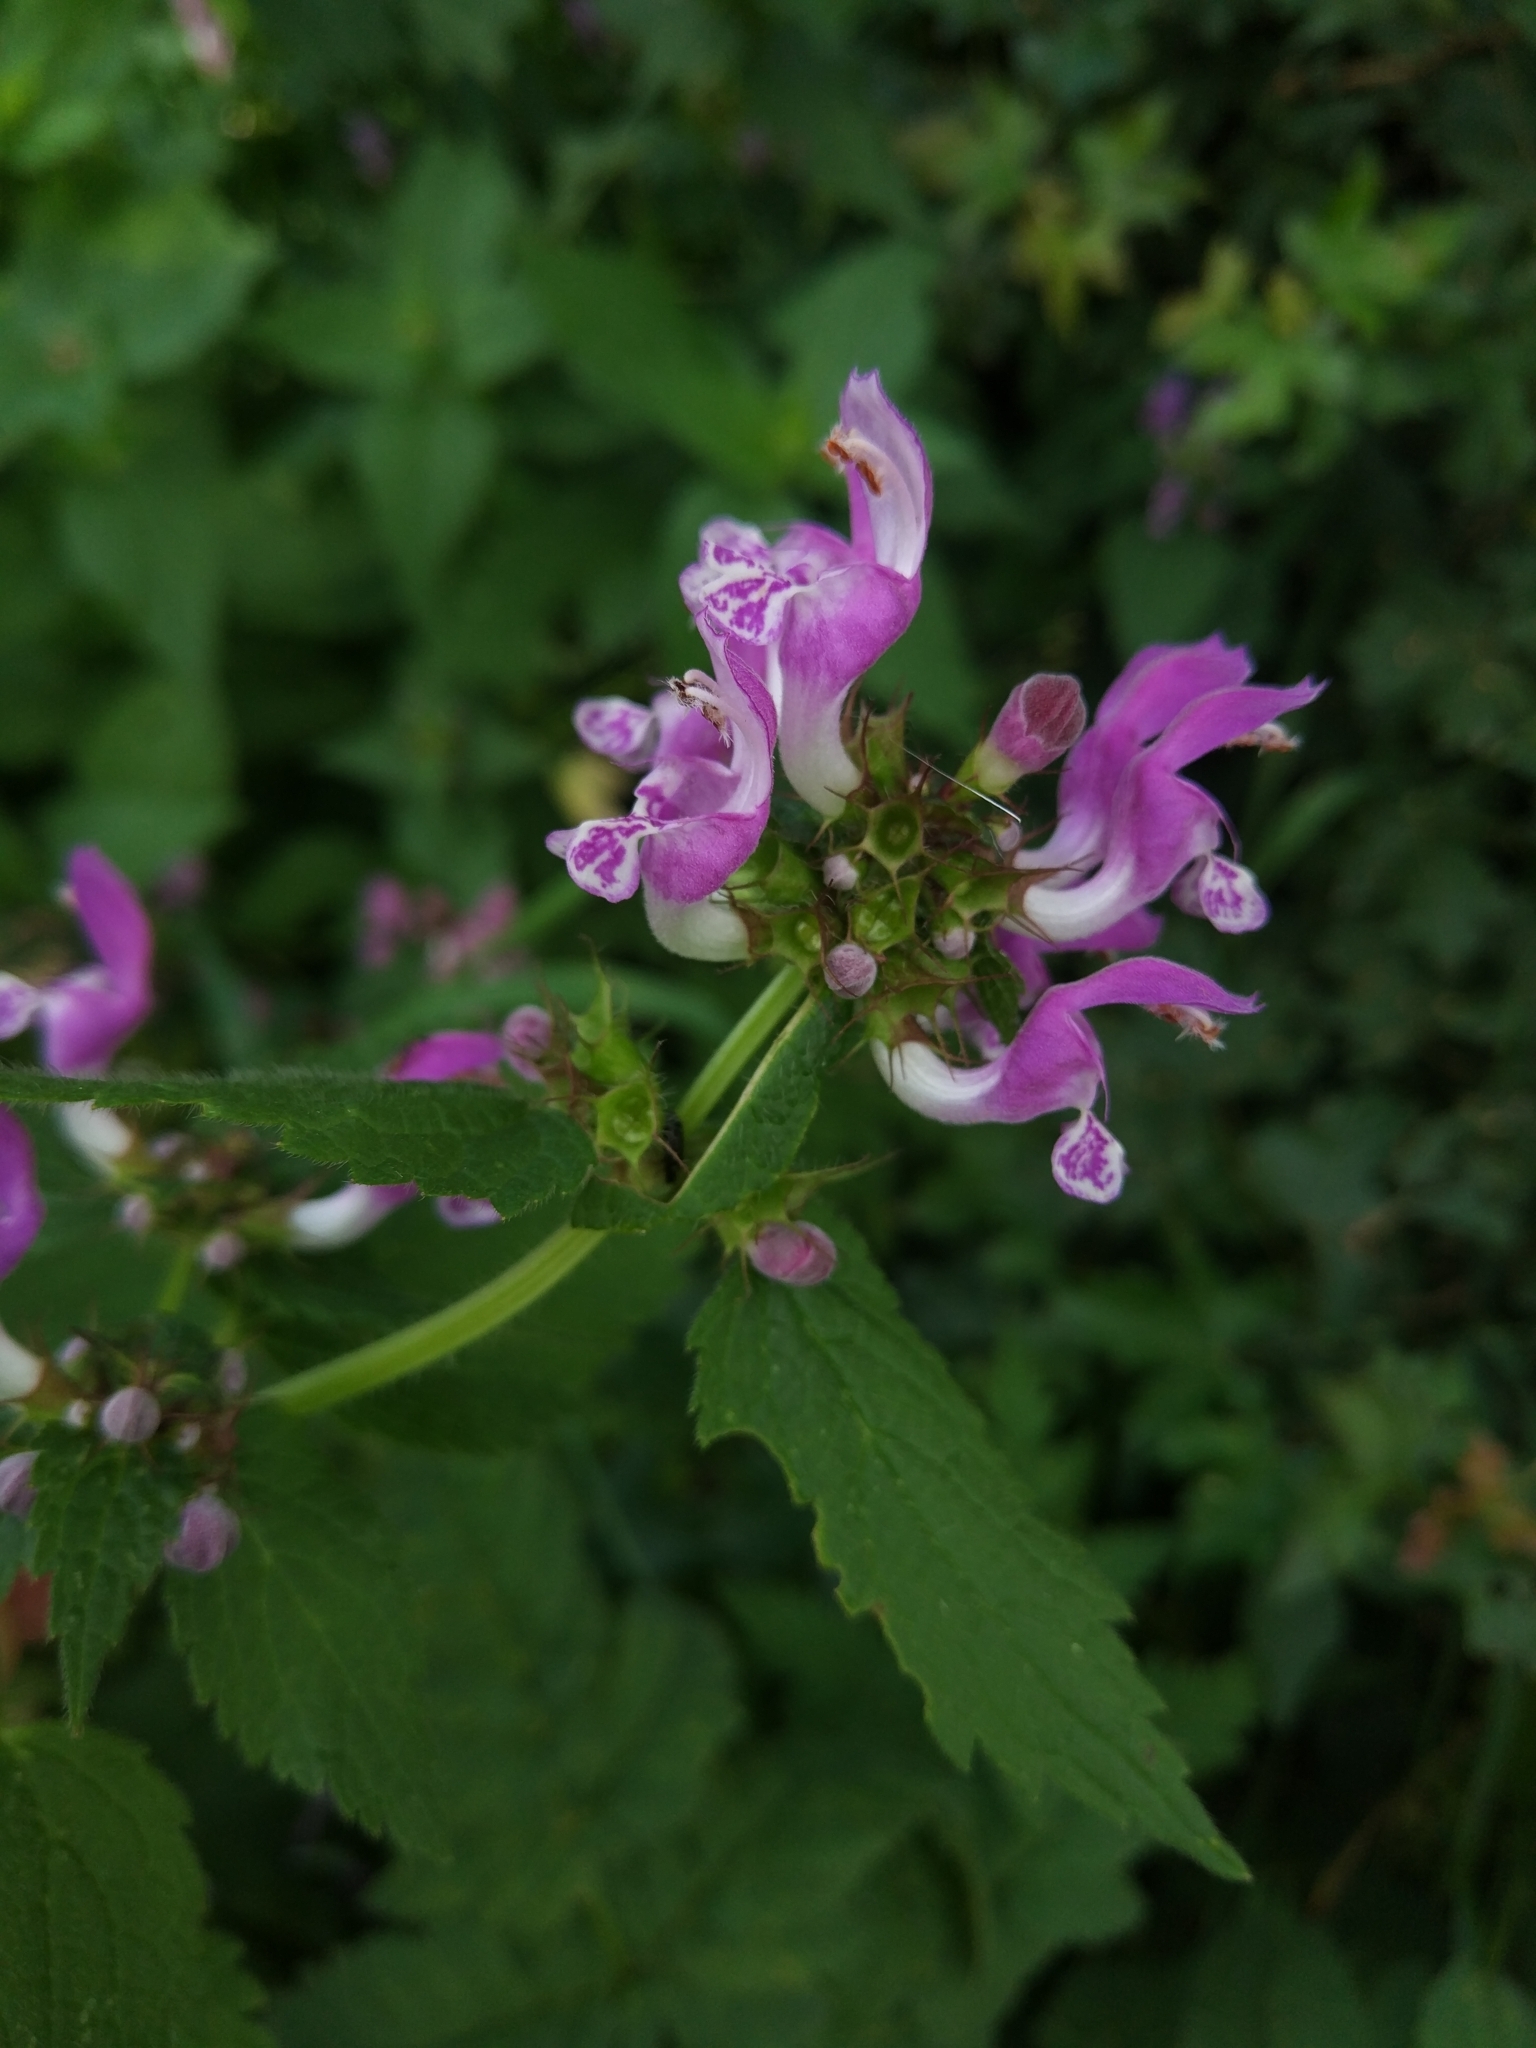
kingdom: Plantae
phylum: Tracheophyta
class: Magnoliopsida
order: Lamiales
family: Lamiaceae
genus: Lamium
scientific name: Lamium maculatum
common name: Spotted dead-nettle
